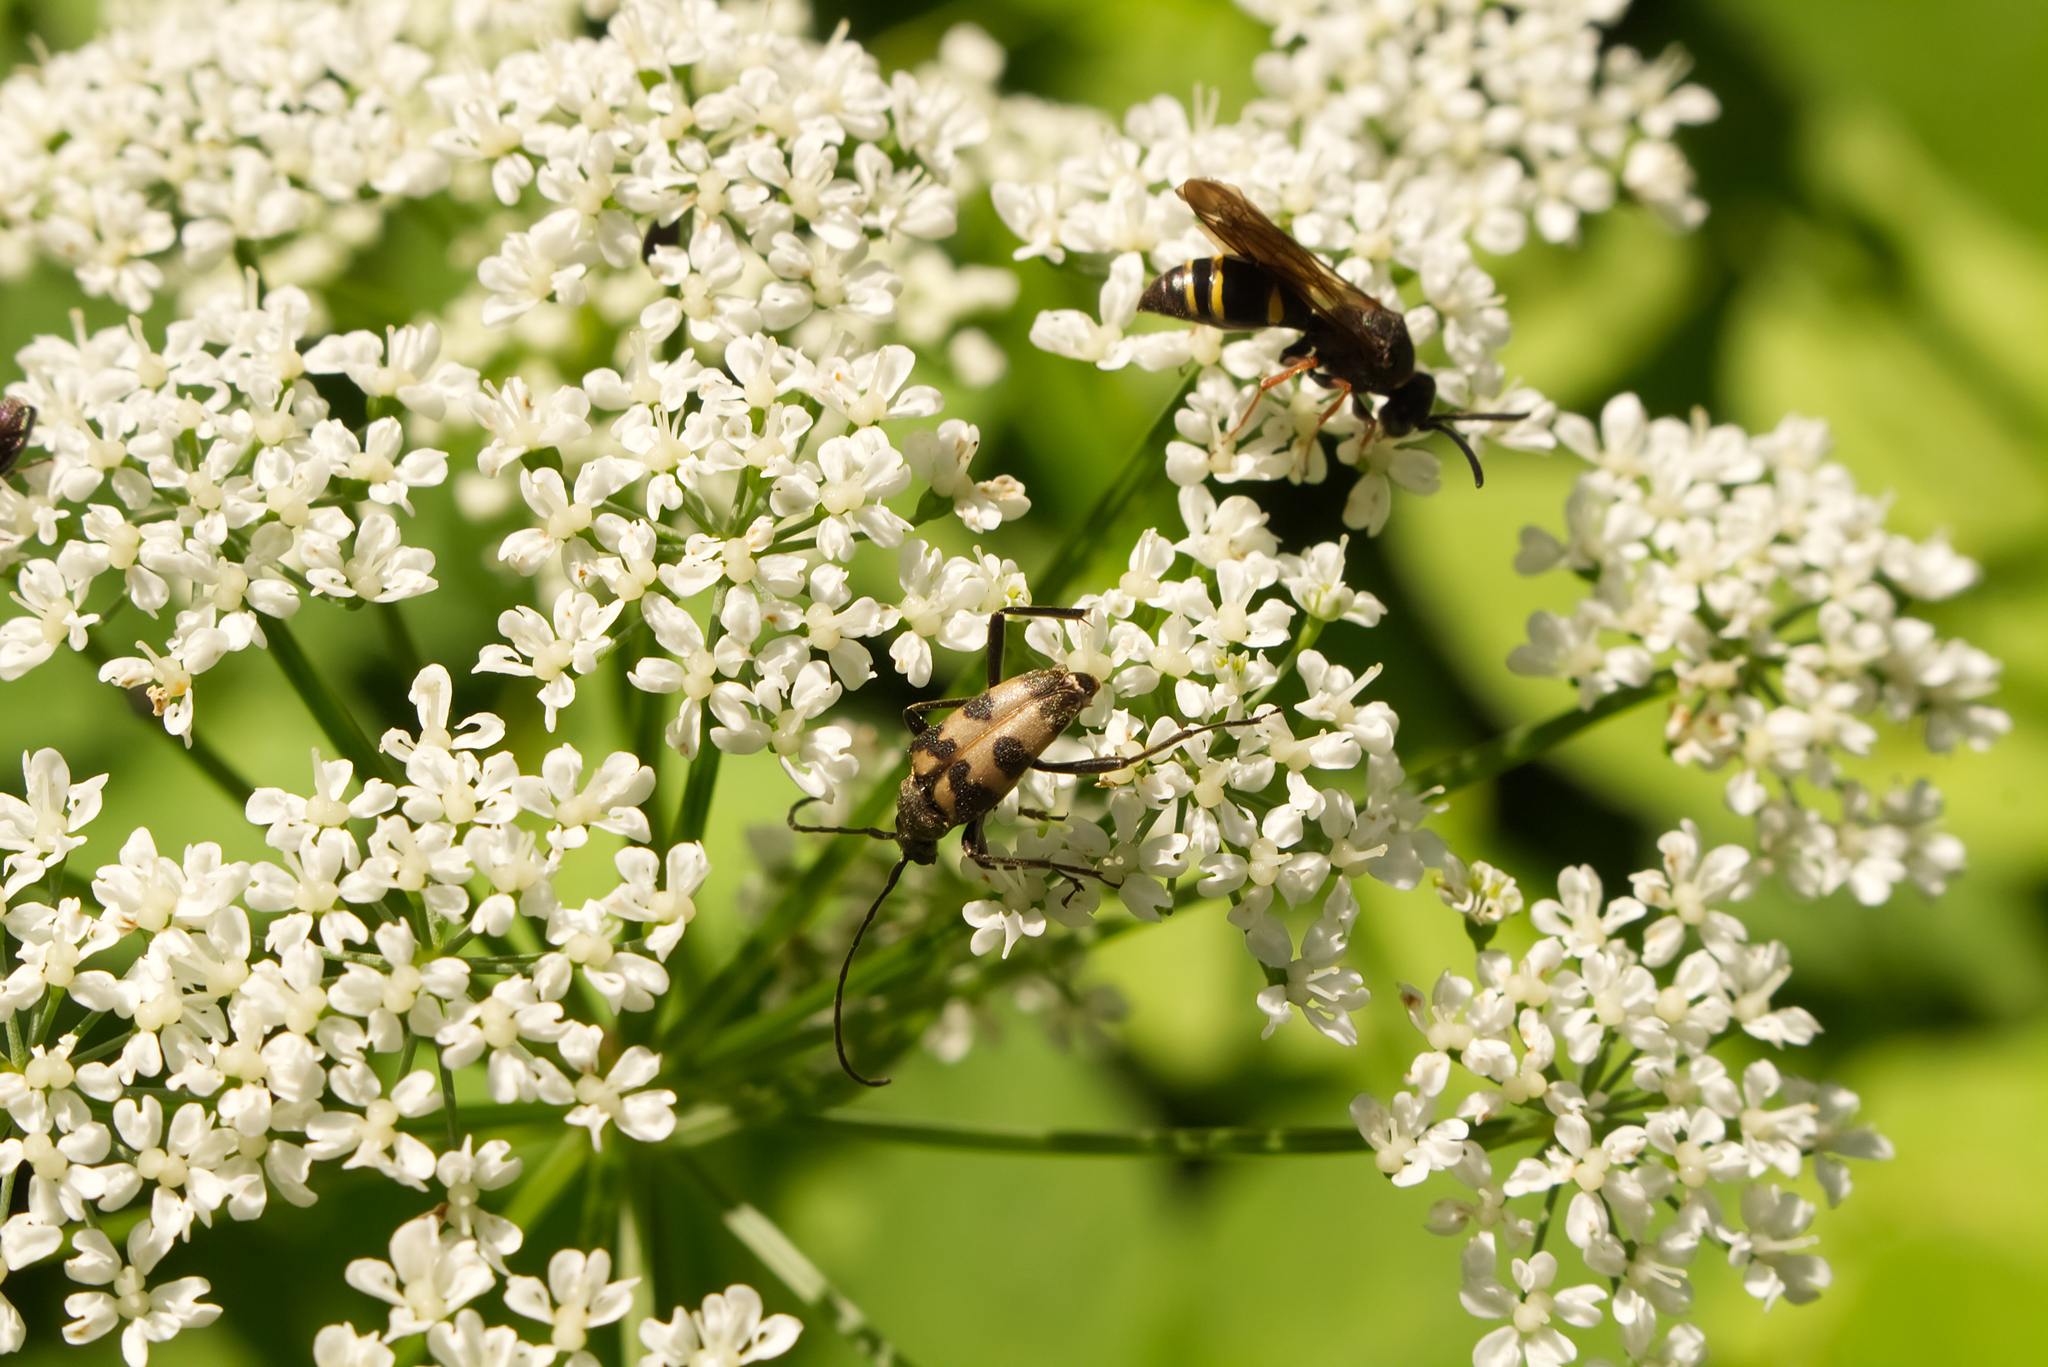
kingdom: Animalia
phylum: Arthropoda
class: Insecta
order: Coleoptera
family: Cerambycidae
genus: Pachytodes
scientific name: Pachytodes cerambyciformis
